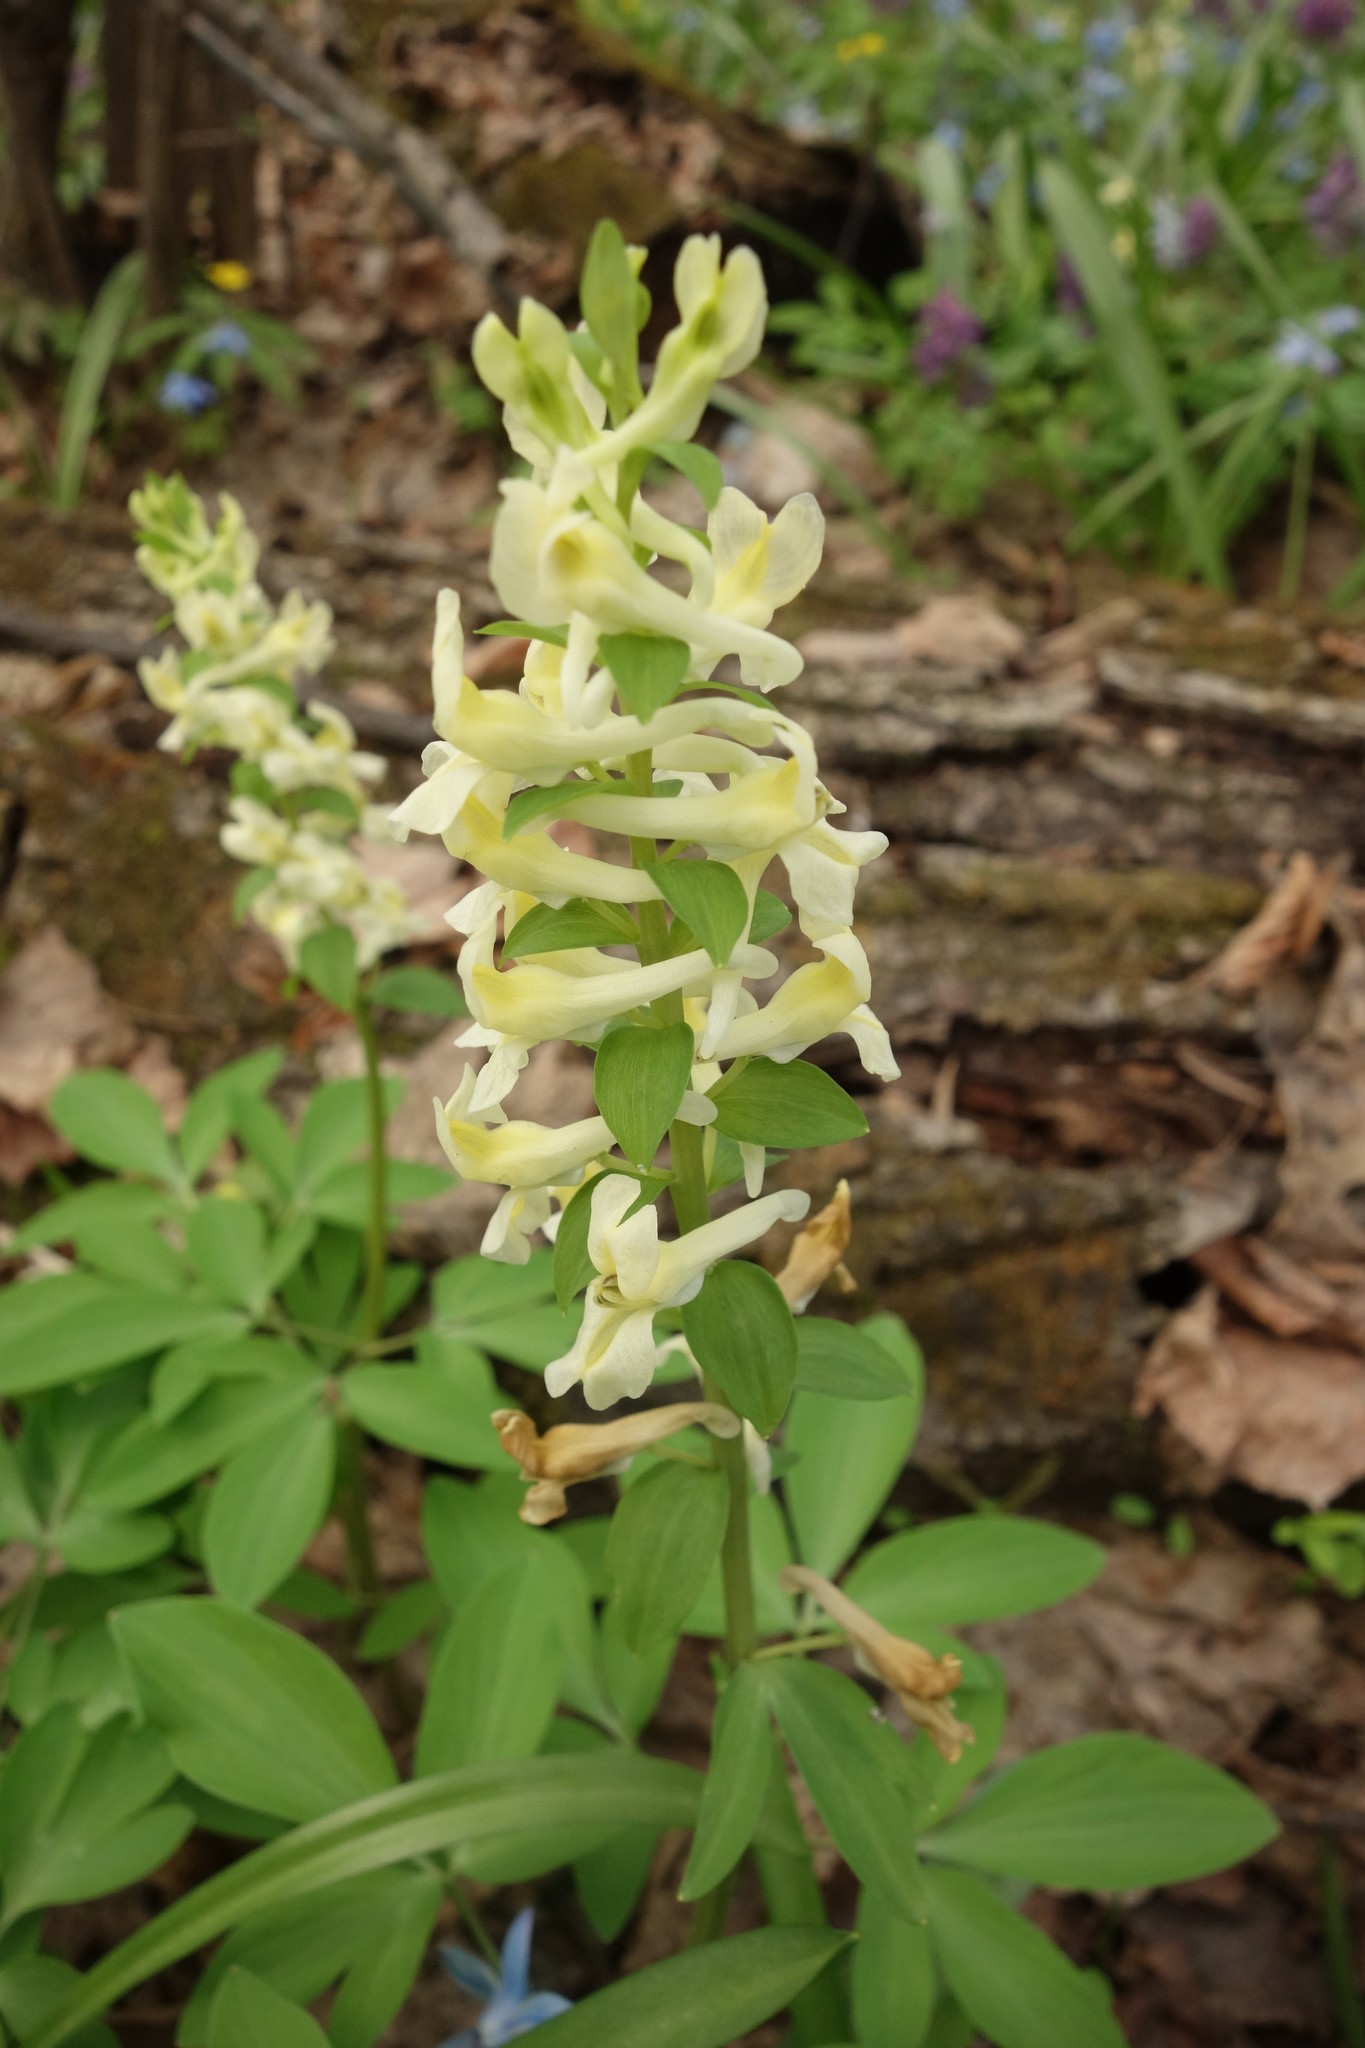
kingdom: Plantae
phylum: Tracheophyta
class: Magnoliopsida
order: Ranunculales
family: Papaveraceae
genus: Corydalis
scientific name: Corydalis cava
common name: Hollowroot
